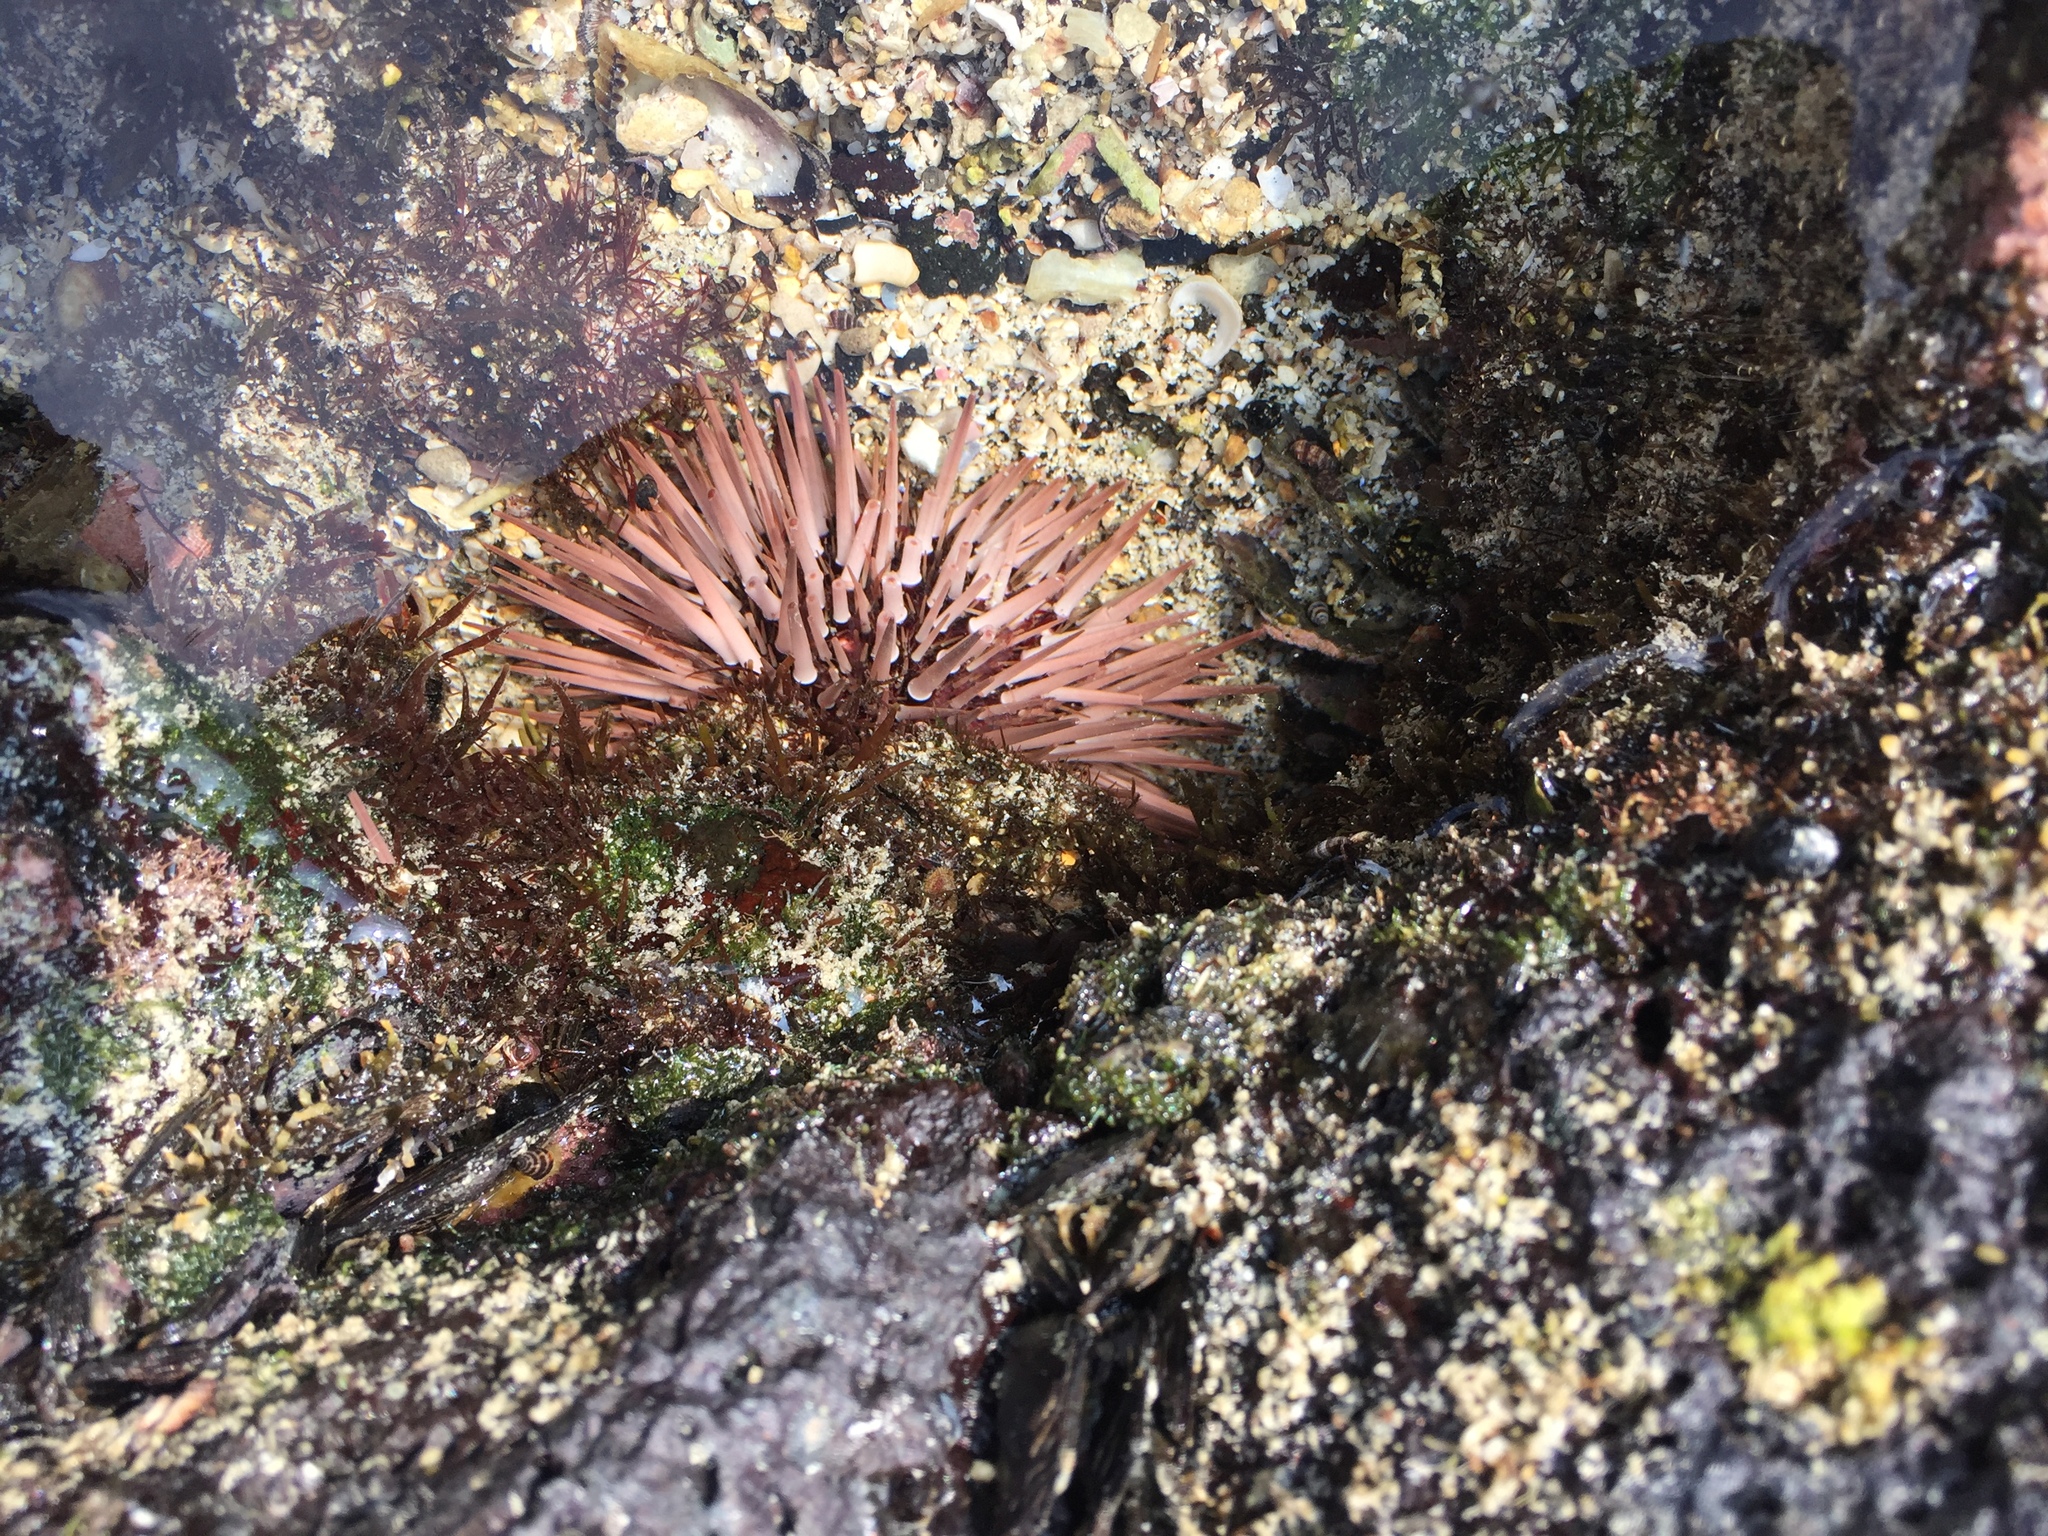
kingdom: Animalia
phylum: Echinodermata
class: Echinoidea
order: Camarodonta
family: Echinometridae
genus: Echinometra
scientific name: Echinometra mathaei
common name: Rock-boring urchin
